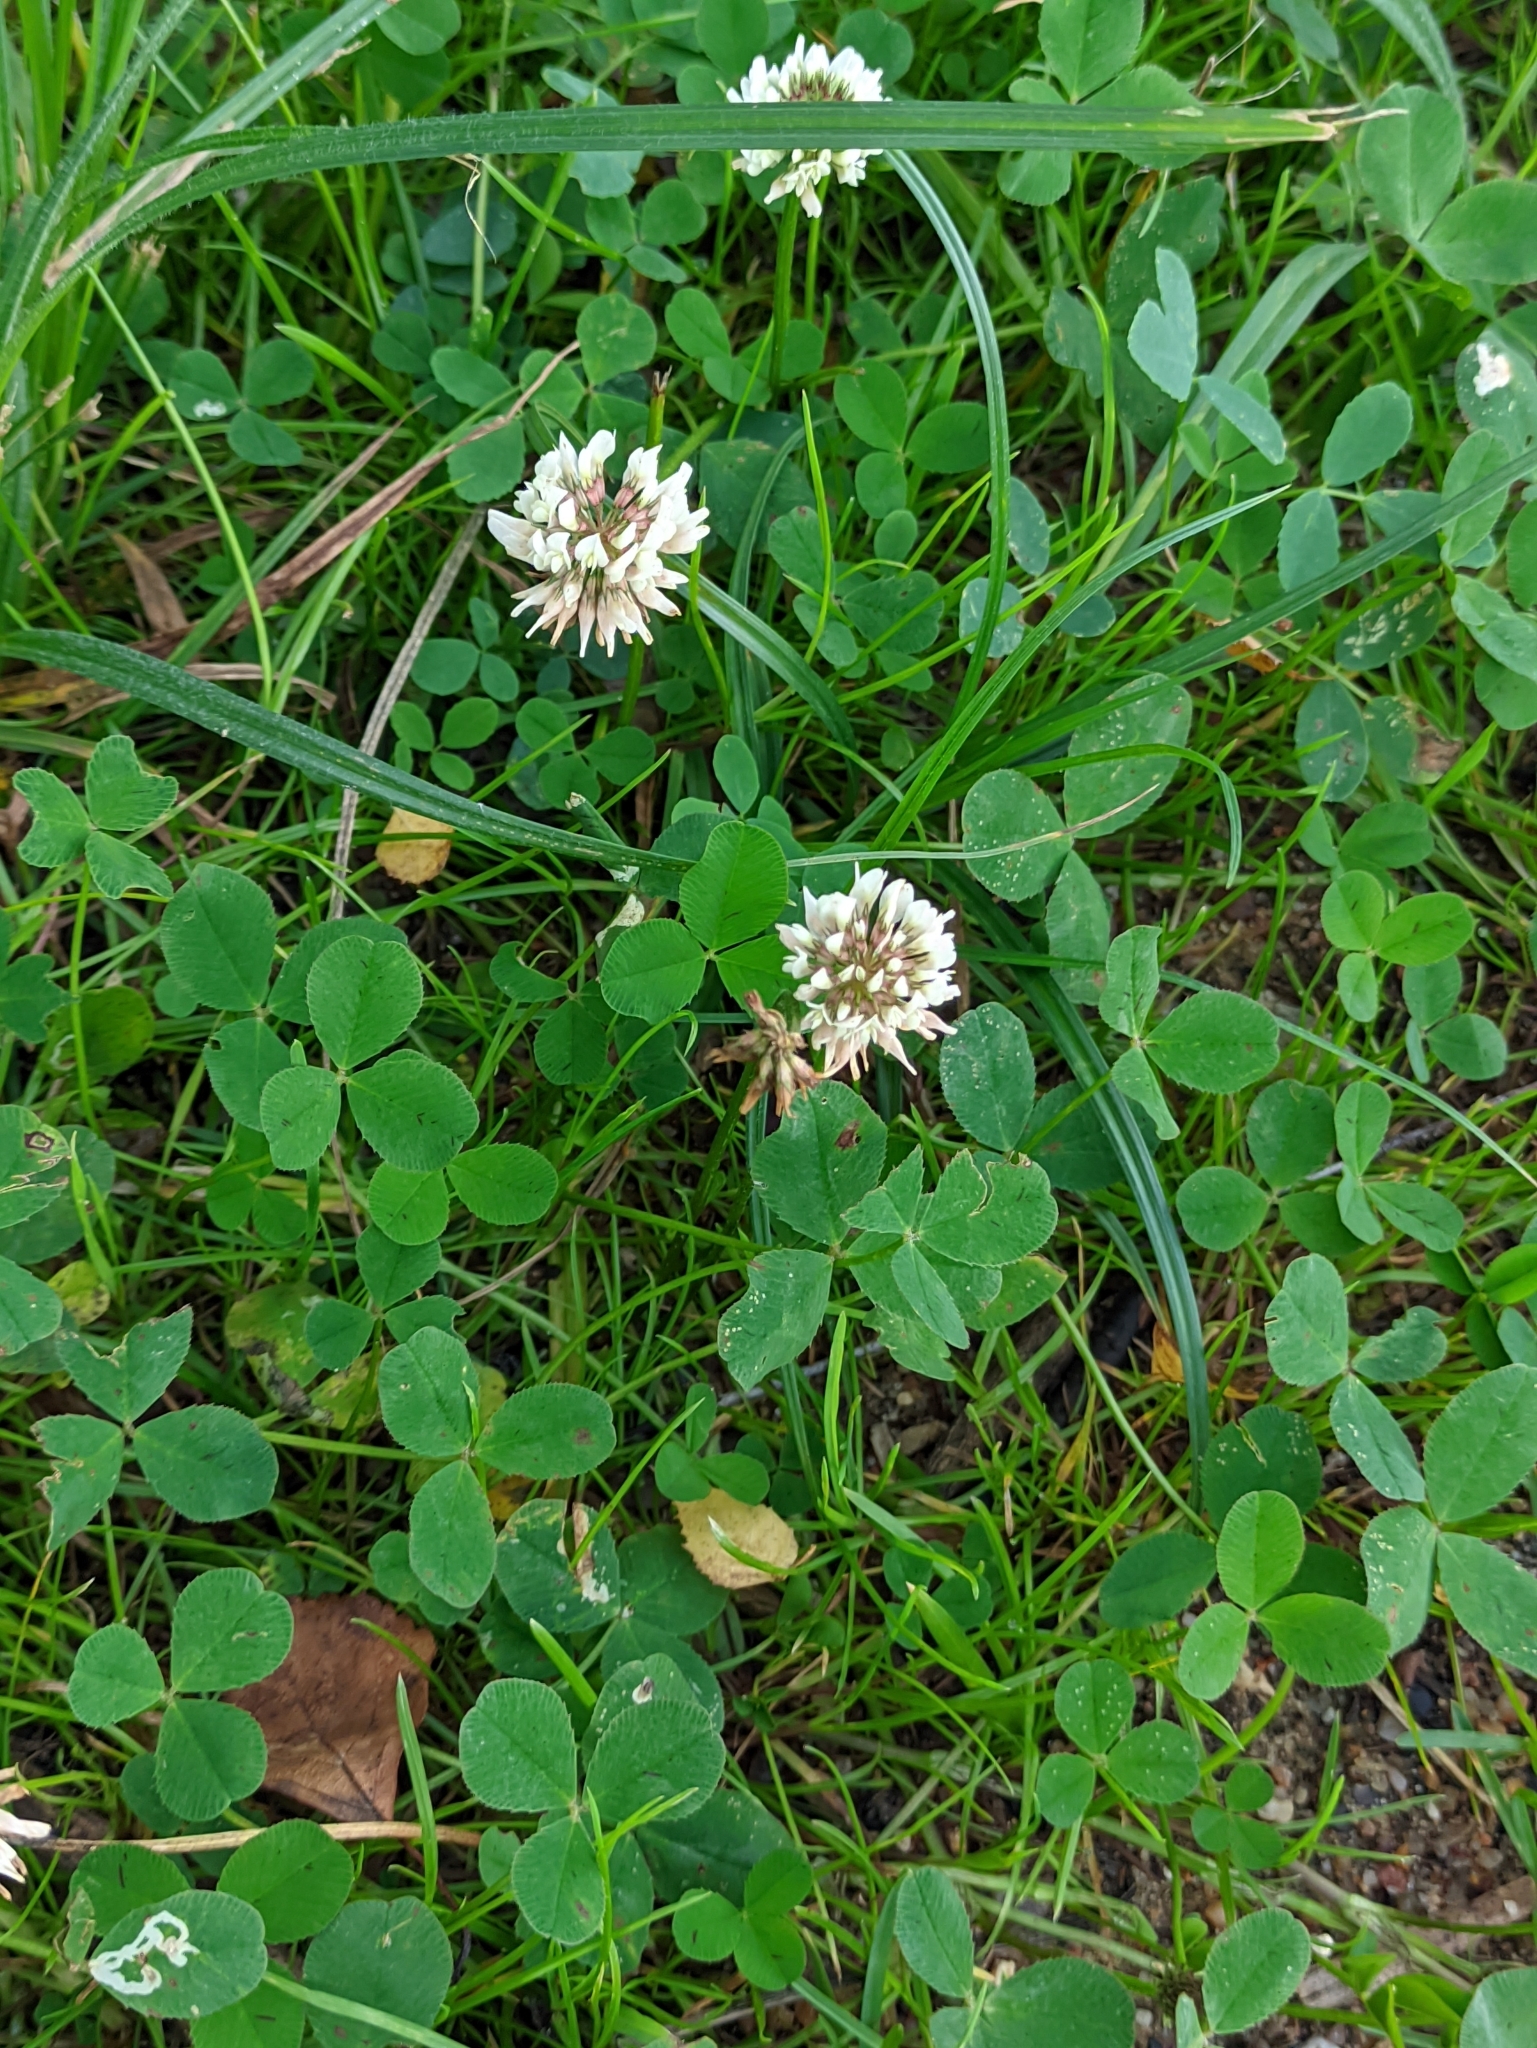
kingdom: Plantae
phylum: Tracheophyta
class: Magnoliopsida
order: Fabales
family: Fabaceae
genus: Trifolium
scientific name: Trifolium repens
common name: White clover
